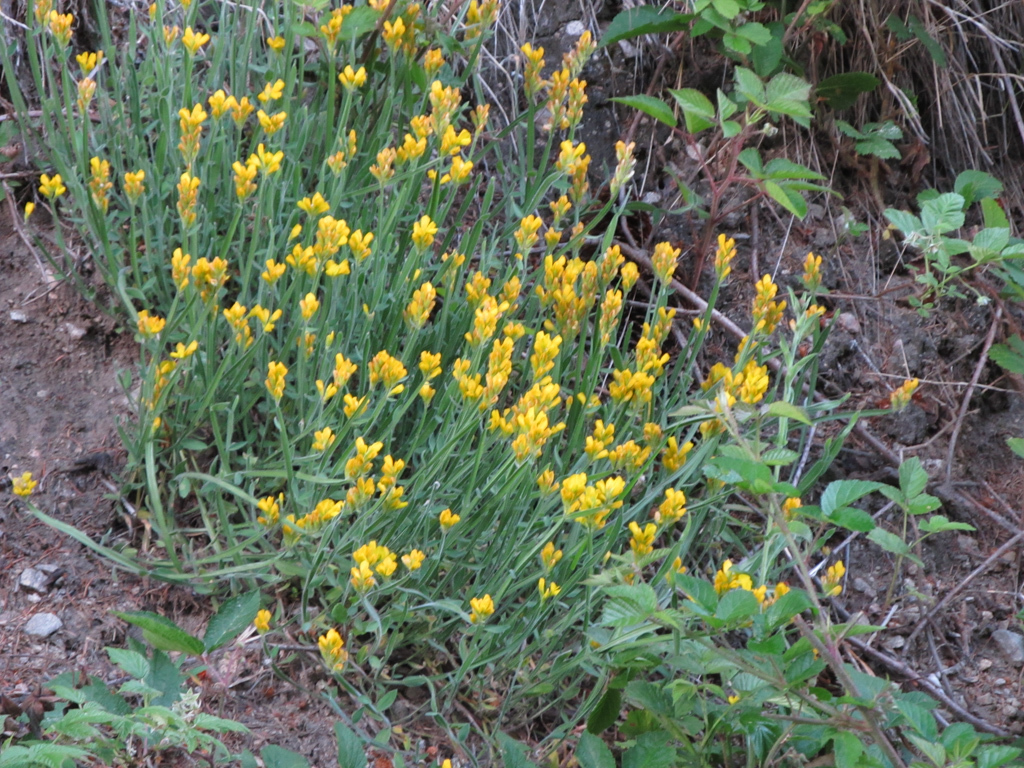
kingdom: Plantae
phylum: Tracheophyta
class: Magnoliopsida
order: Fabales
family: Fabaceae
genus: Genista
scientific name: Genista sagittalis
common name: Winged greenweed
